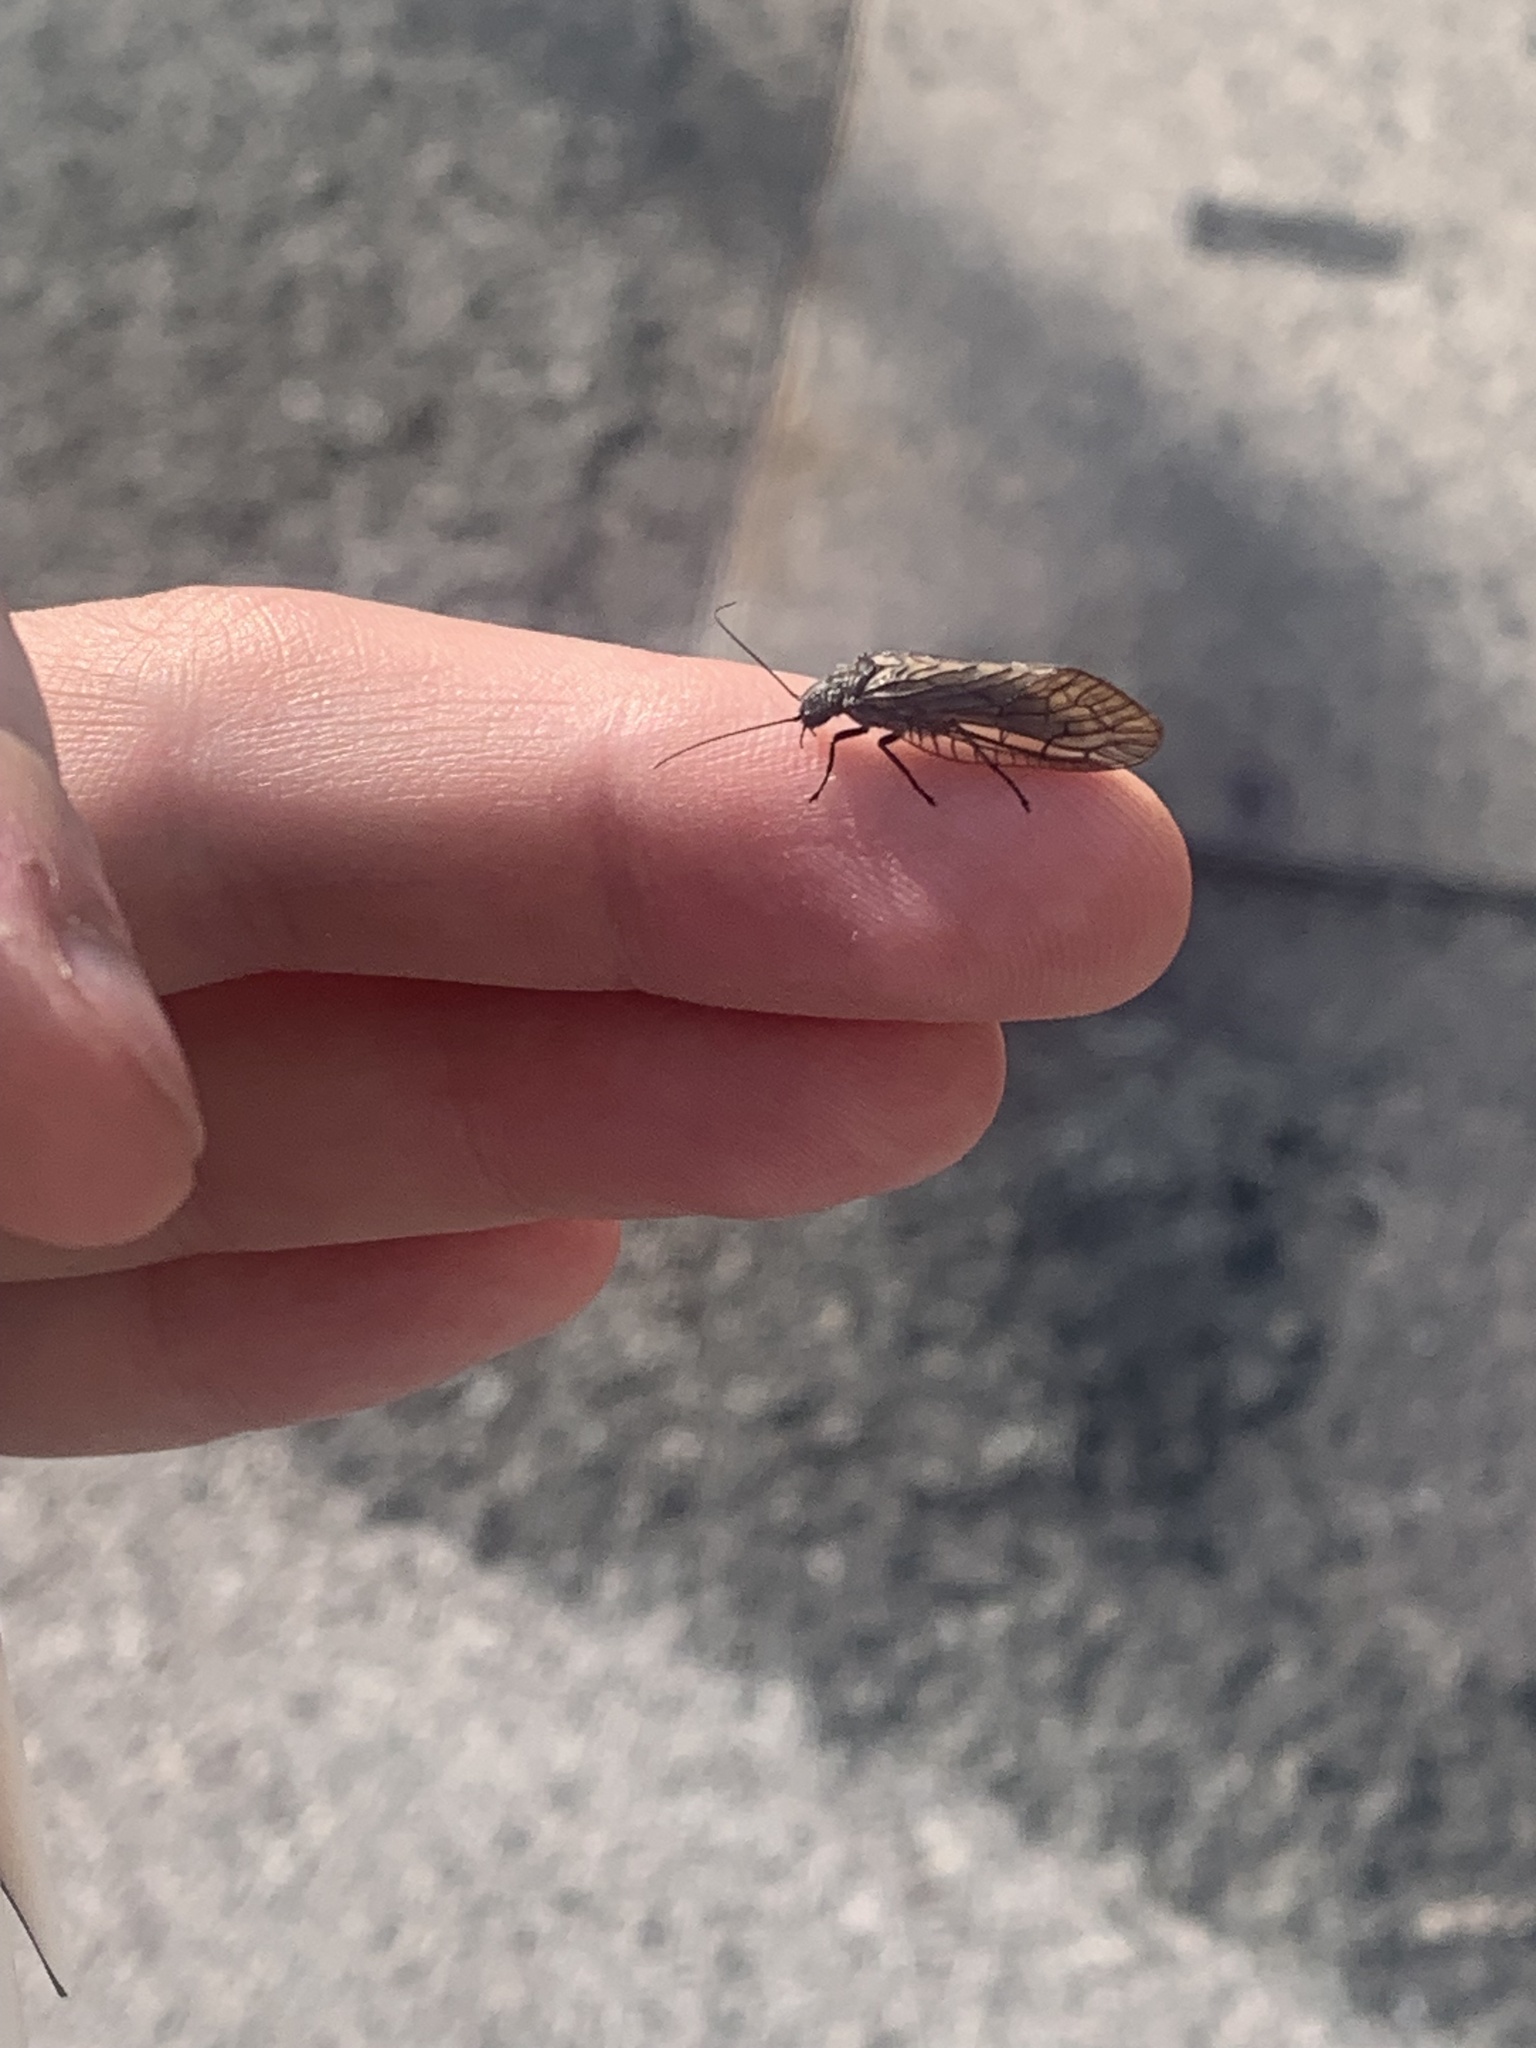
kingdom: Animalia
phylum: Arthropoda
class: Insecta
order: Megaloptera
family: Sialidae
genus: Sialis
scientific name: Sialis
